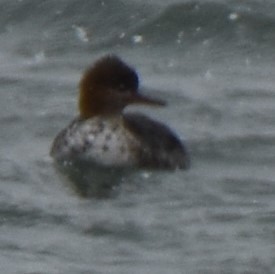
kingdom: Animalia
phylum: Chordata
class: Aves
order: Anseriformes
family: Anatidae
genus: Mergus
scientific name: Mergus serrator
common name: Red-breasted merganser
